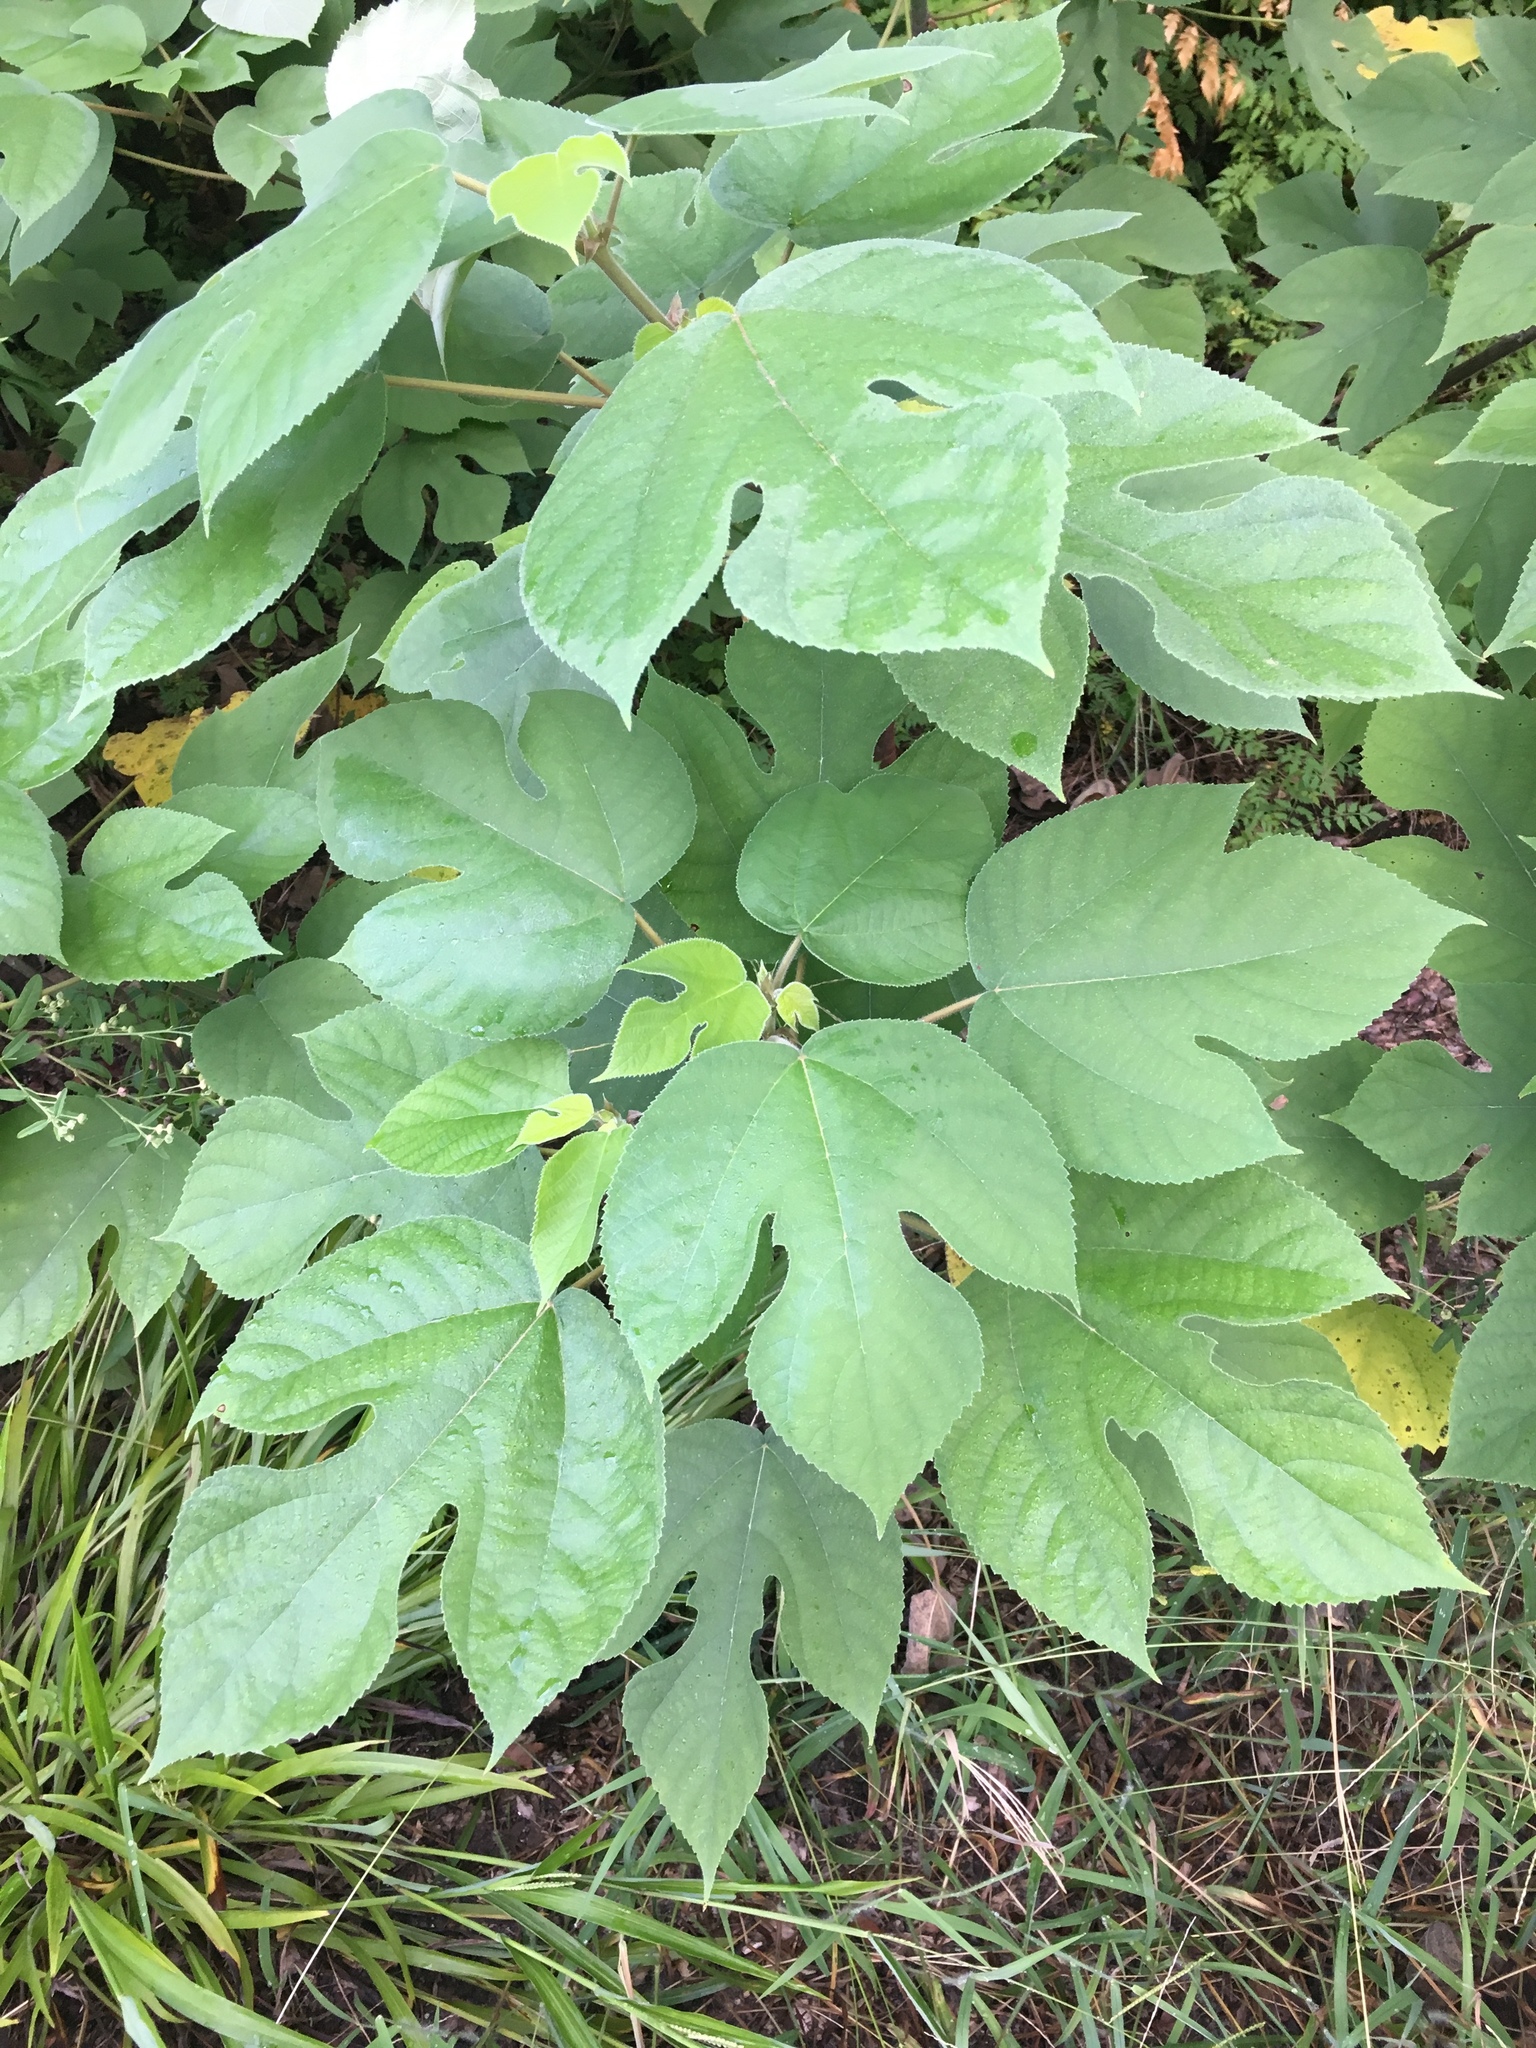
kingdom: Plantae
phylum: Tracheophyta
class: Magnoliopsida
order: Rosales
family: Moraceae
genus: Broussonetia
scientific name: Broussonetia papyrifera
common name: Paper mulberry
